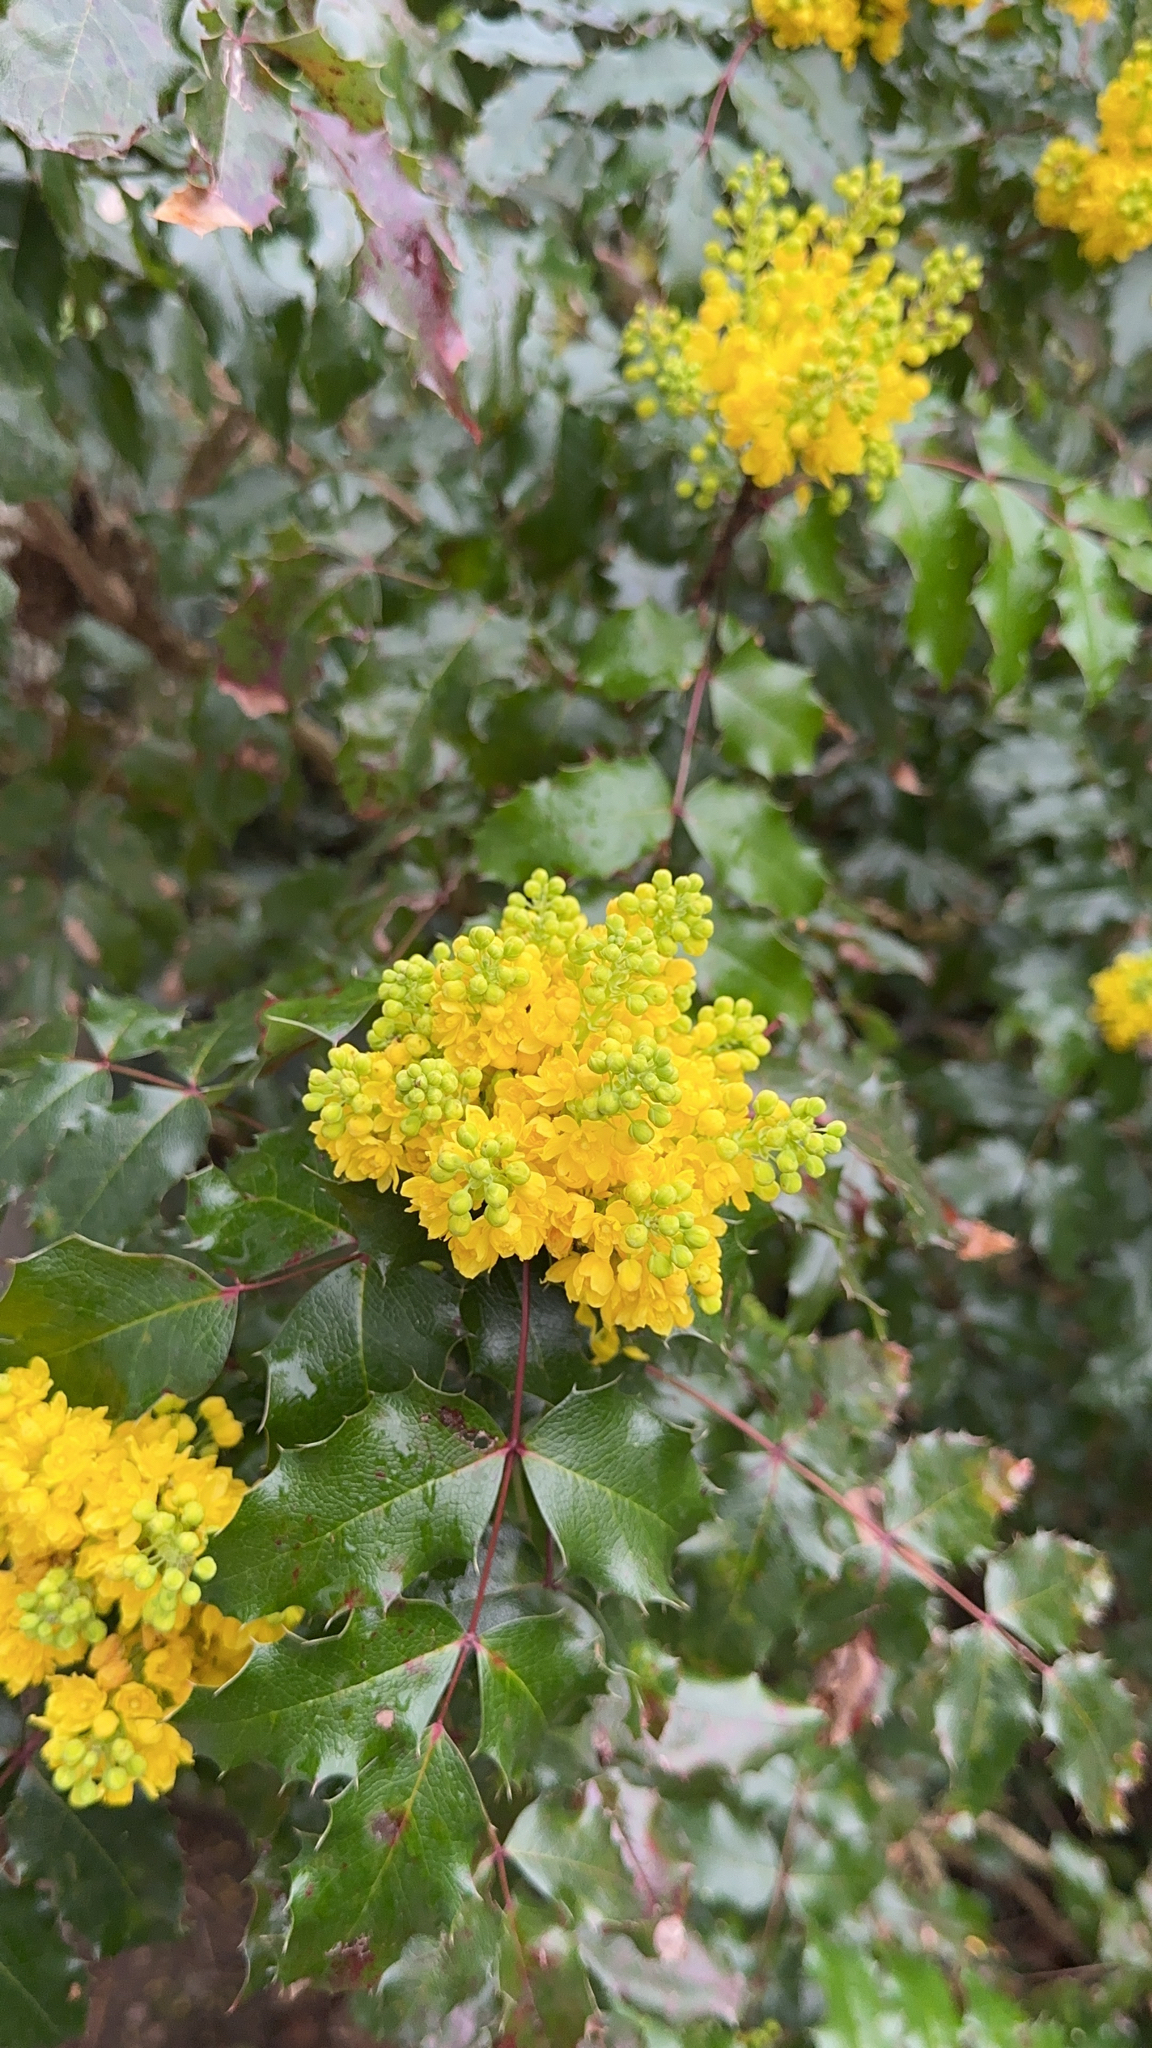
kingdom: Plantae
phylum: Tracheophyta
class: Magnoliopsida
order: Ranunculales
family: Berberidaceae
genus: Mahonia
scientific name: Mahonia aquifolium
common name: Oregon-grape
